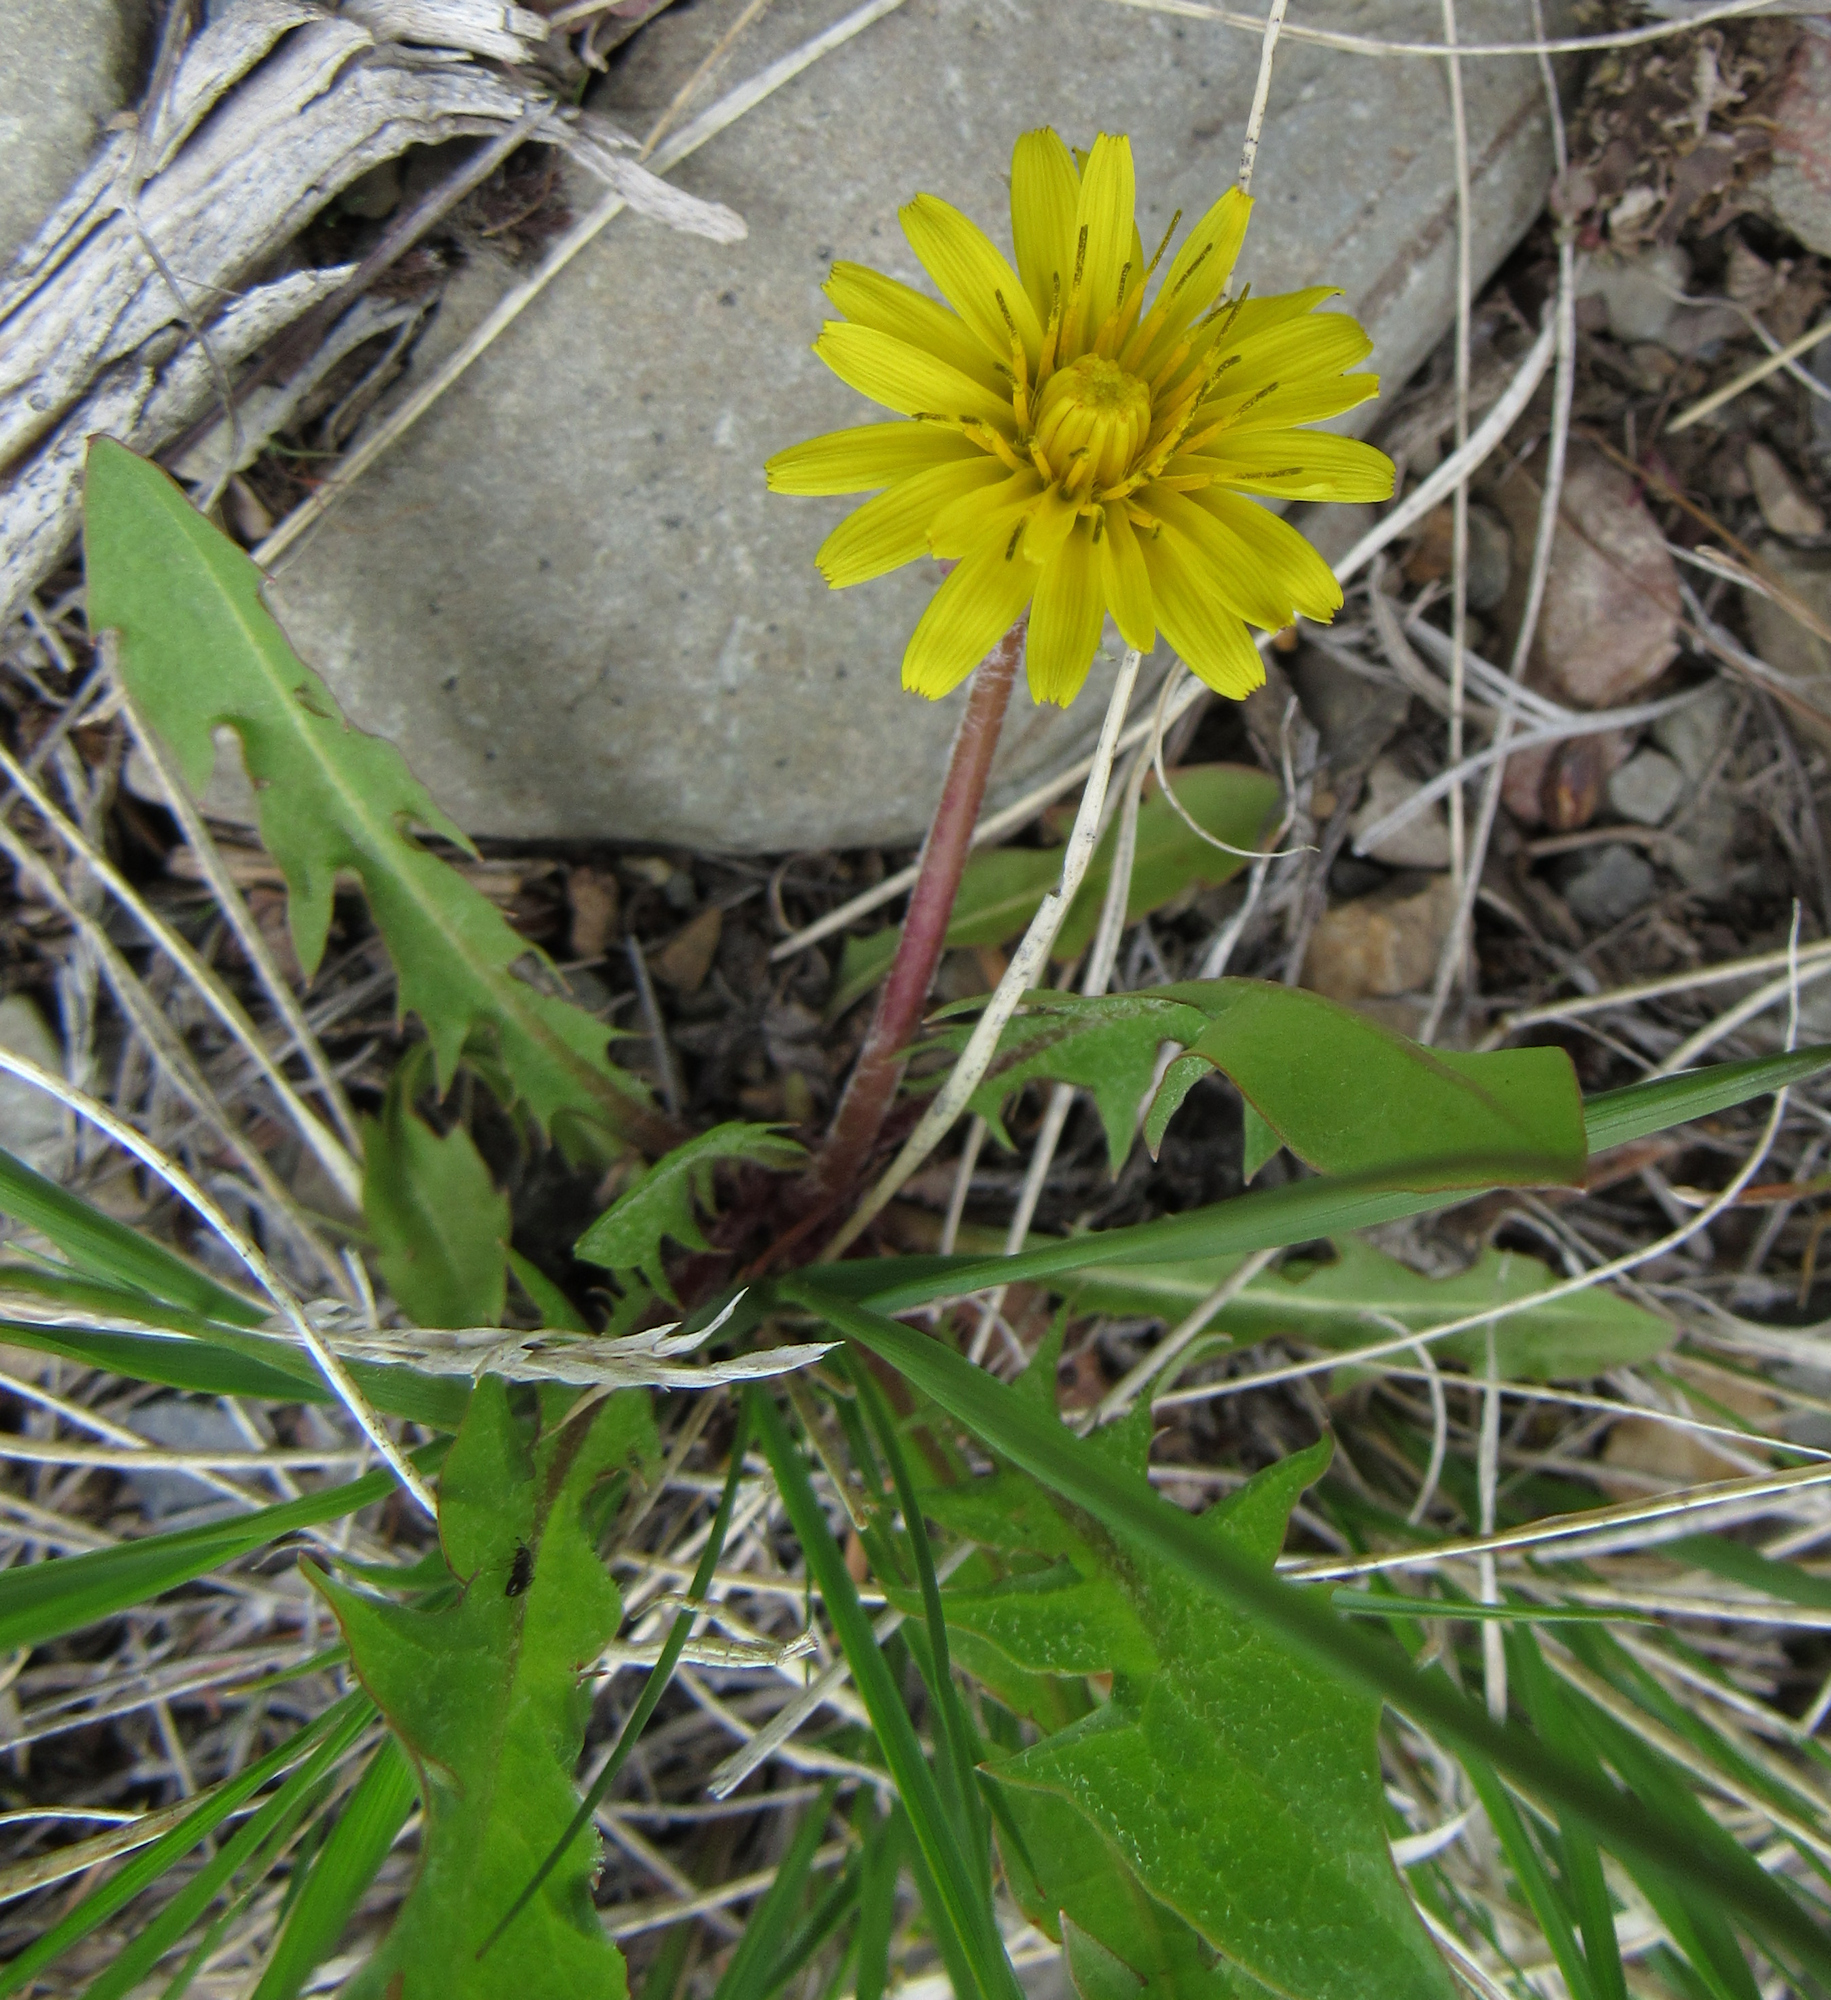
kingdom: Plantae
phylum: Tracheophyta
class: Magnoliopsida
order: Asterales
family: Asteraceae
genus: Taraxacum
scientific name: Taraxacum officinale
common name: Common dandelion
